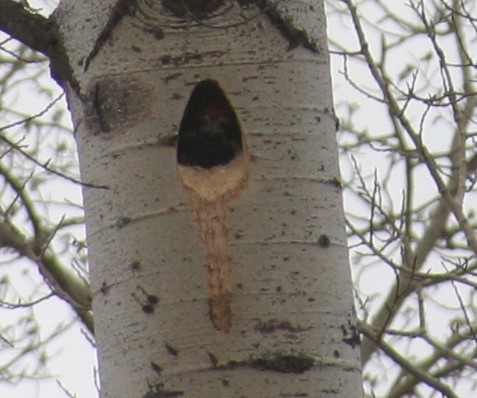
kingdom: Animalia
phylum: Chordata
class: Aves
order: Piciformes
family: Picidae
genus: Dryocopus
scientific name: Dryocopus pileatus
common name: Pileated woodpecker
